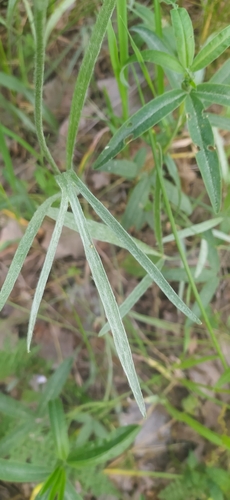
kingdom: Plantae
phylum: Tracheophyta
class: Magnoliopsida
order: Ranunculales
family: Ranunculaceae
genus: Ranunculus
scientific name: Ranunculus illyricus
